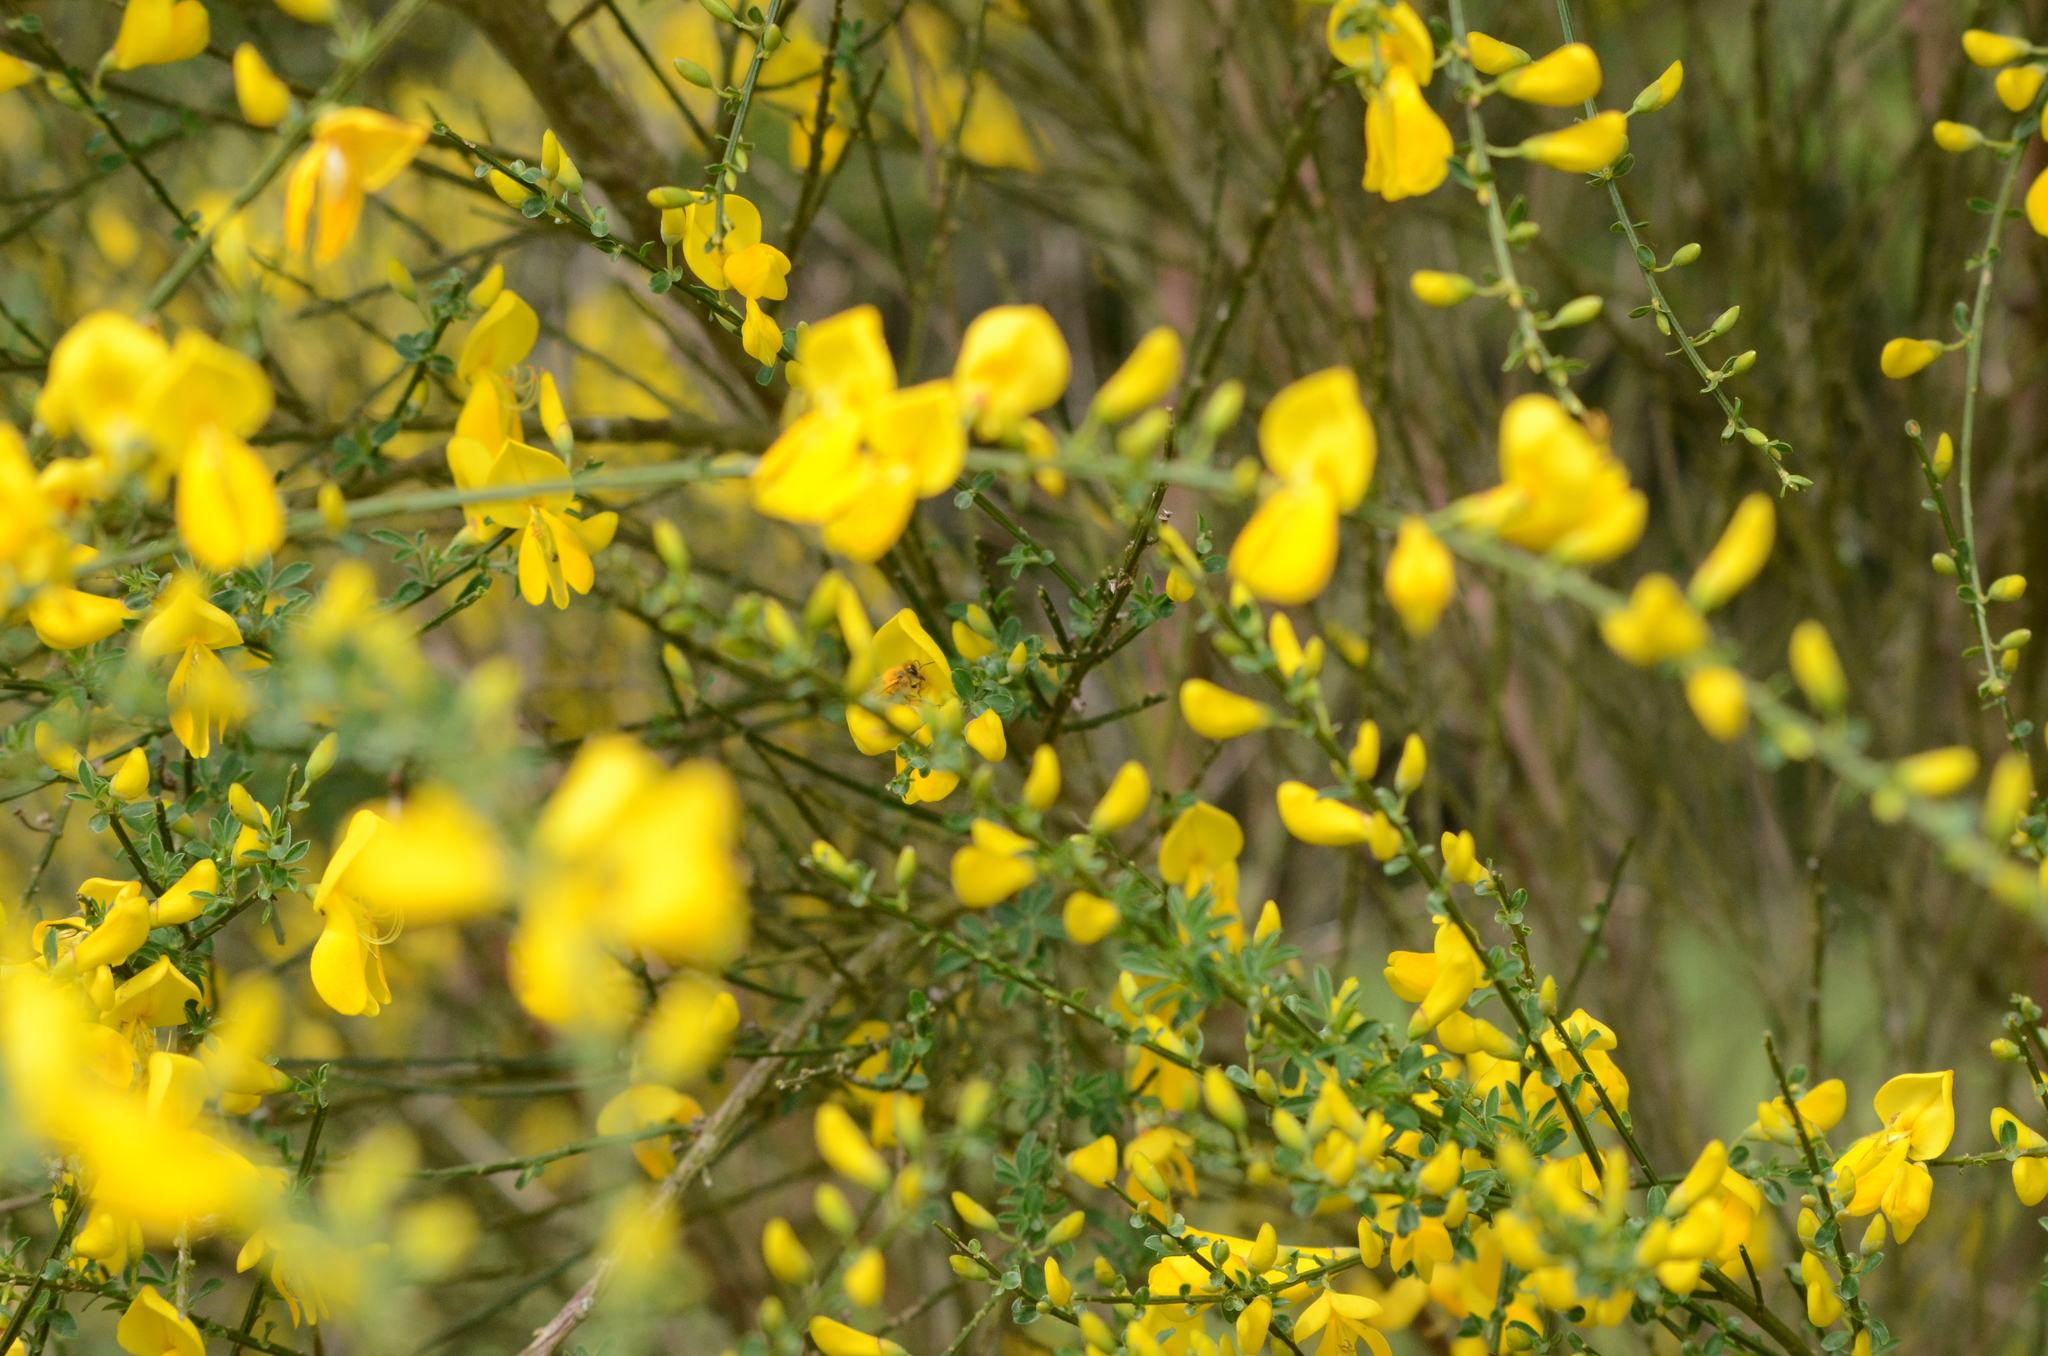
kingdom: Animalia
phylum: Arthropoda
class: Insecta
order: Hymenoptera
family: Apidae
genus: Apis
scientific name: Apis mellifera
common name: Honey bee
